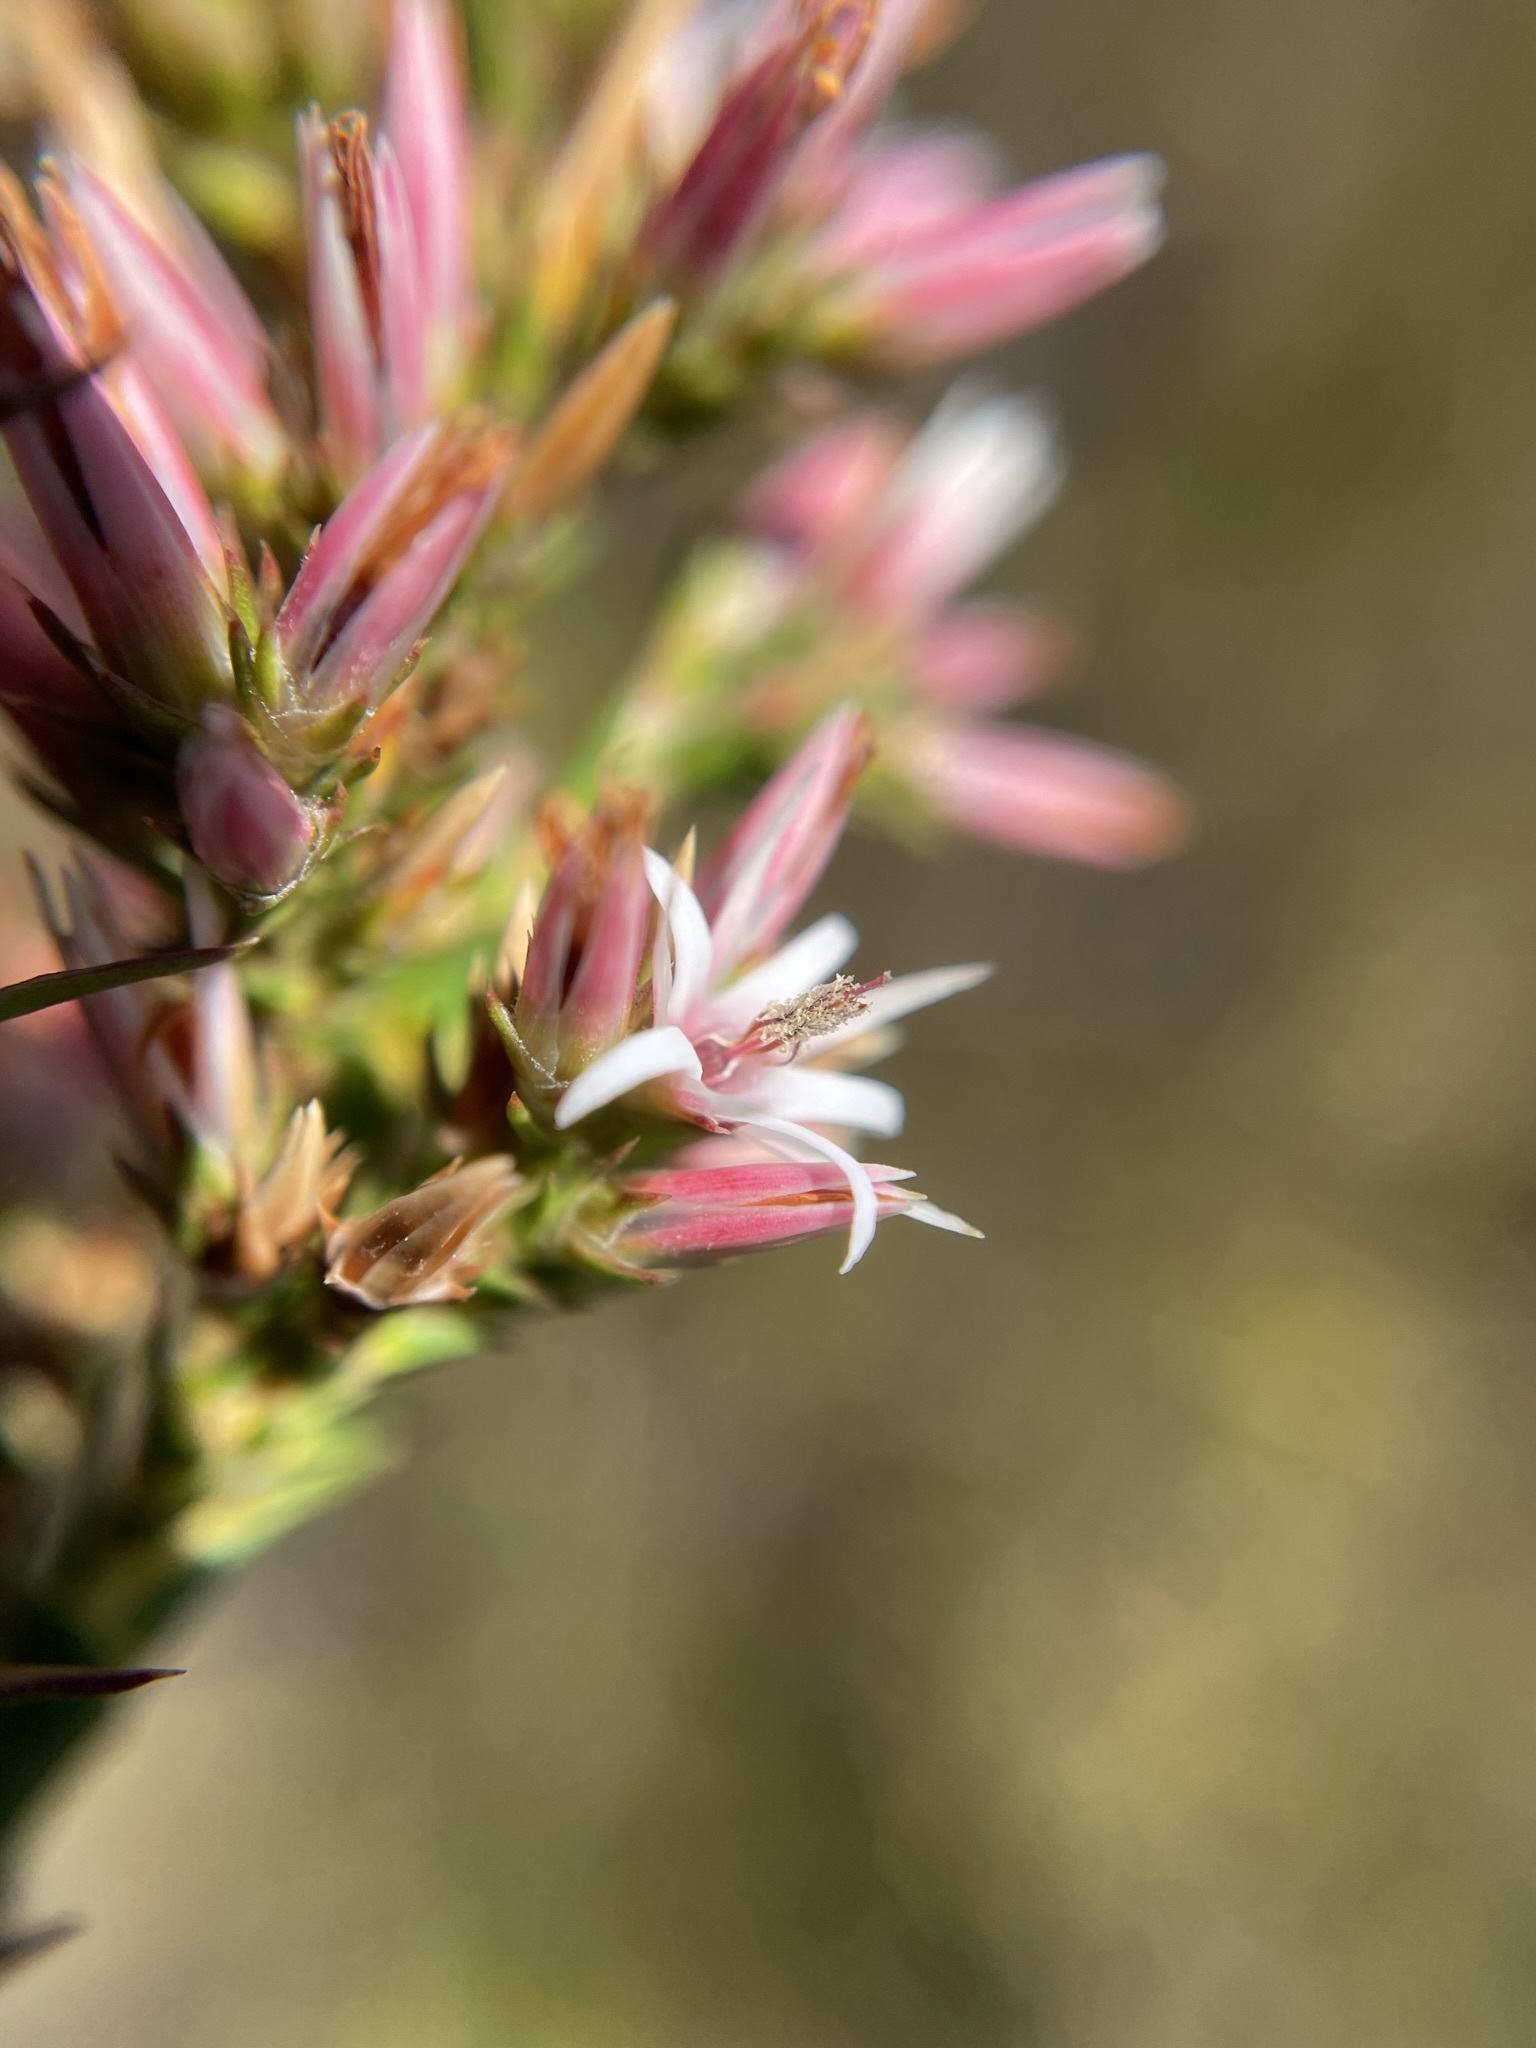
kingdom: Plantae
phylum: Tracheophyta
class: Magnoliopsida
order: Ericales
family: Ericaceae
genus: Sprengelia
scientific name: Sprengelia incarnata
